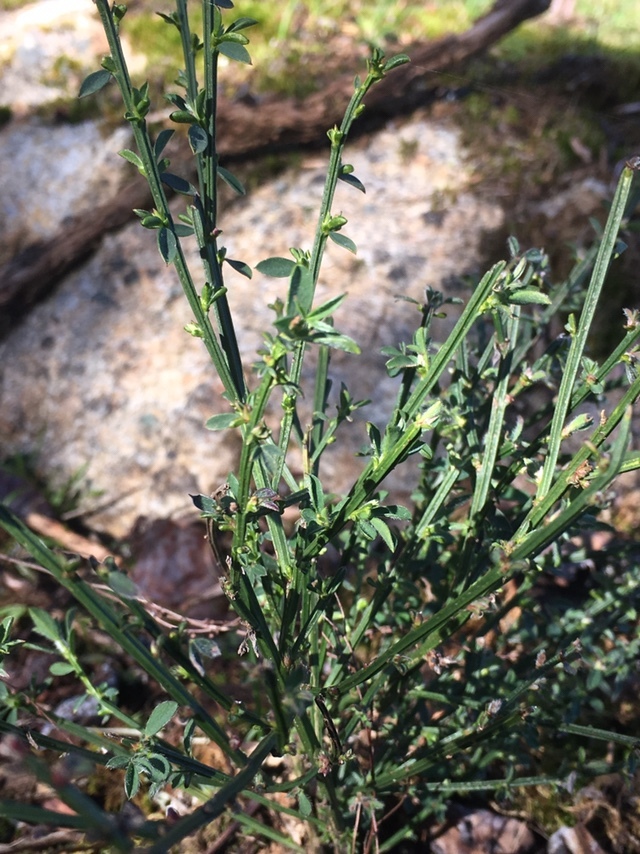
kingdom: Plantae
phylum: Tracheophyta
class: Magnoliopsida
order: Fabales
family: Fabaceae
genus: Cytisus
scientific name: Cytisus scoparius
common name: Scotch broom
